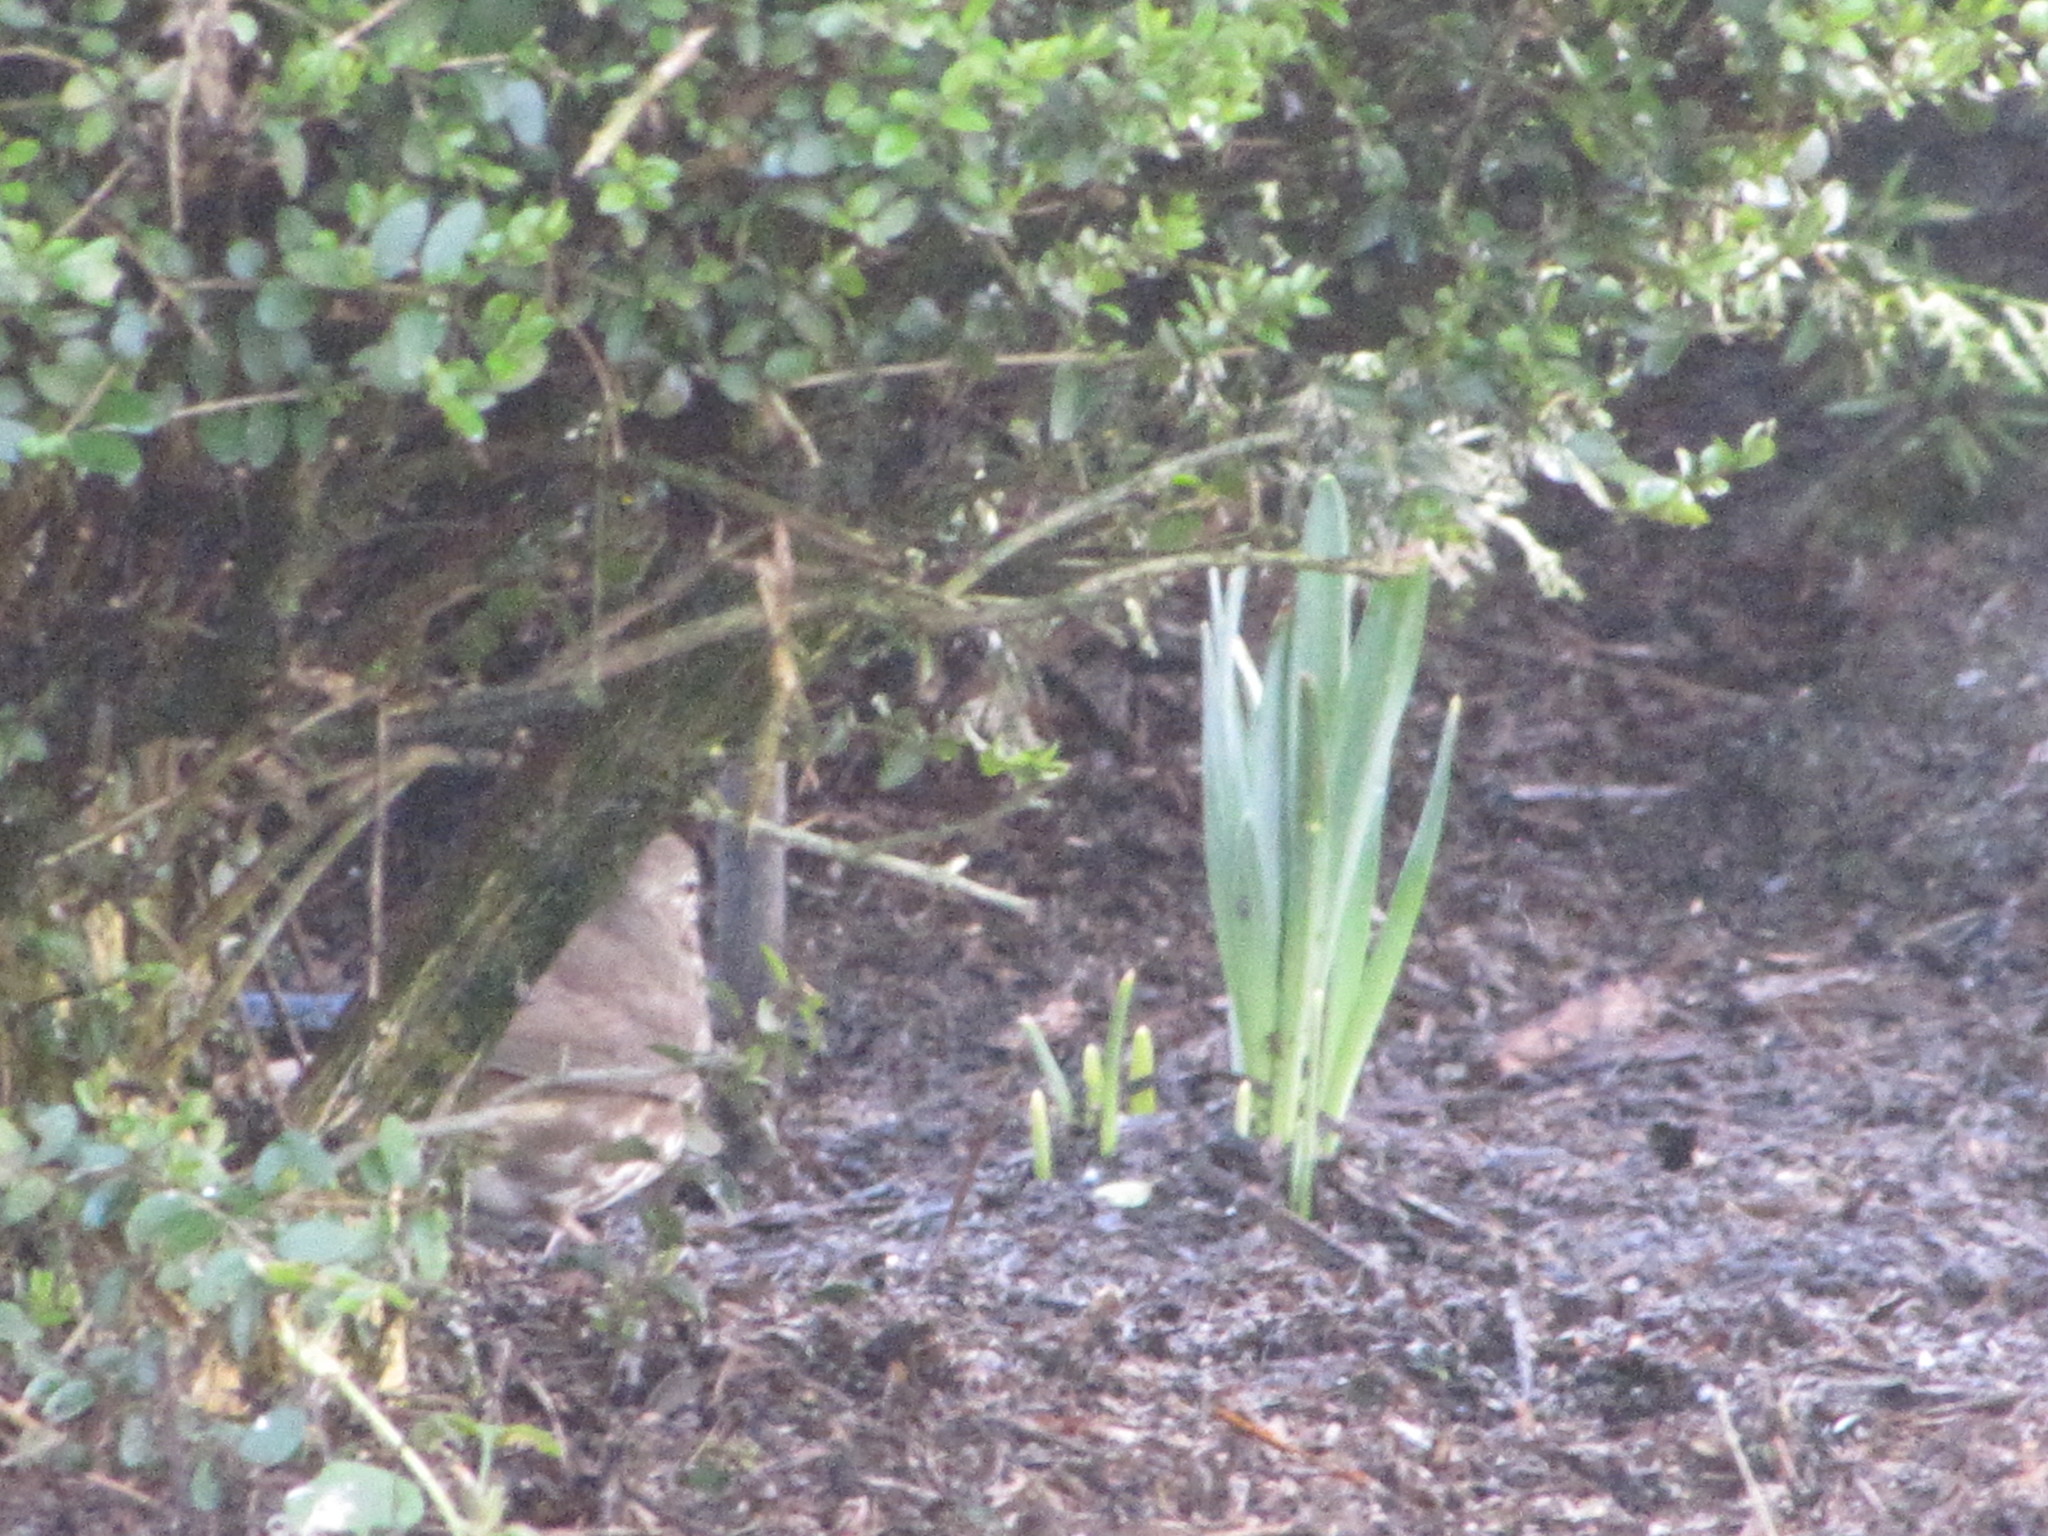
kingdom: Animalia
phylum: Chordata
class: Aves
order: Passeriformes
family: Passerellidae
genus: Passerella
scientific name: Passerella iliaca
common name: Fox sparrow
